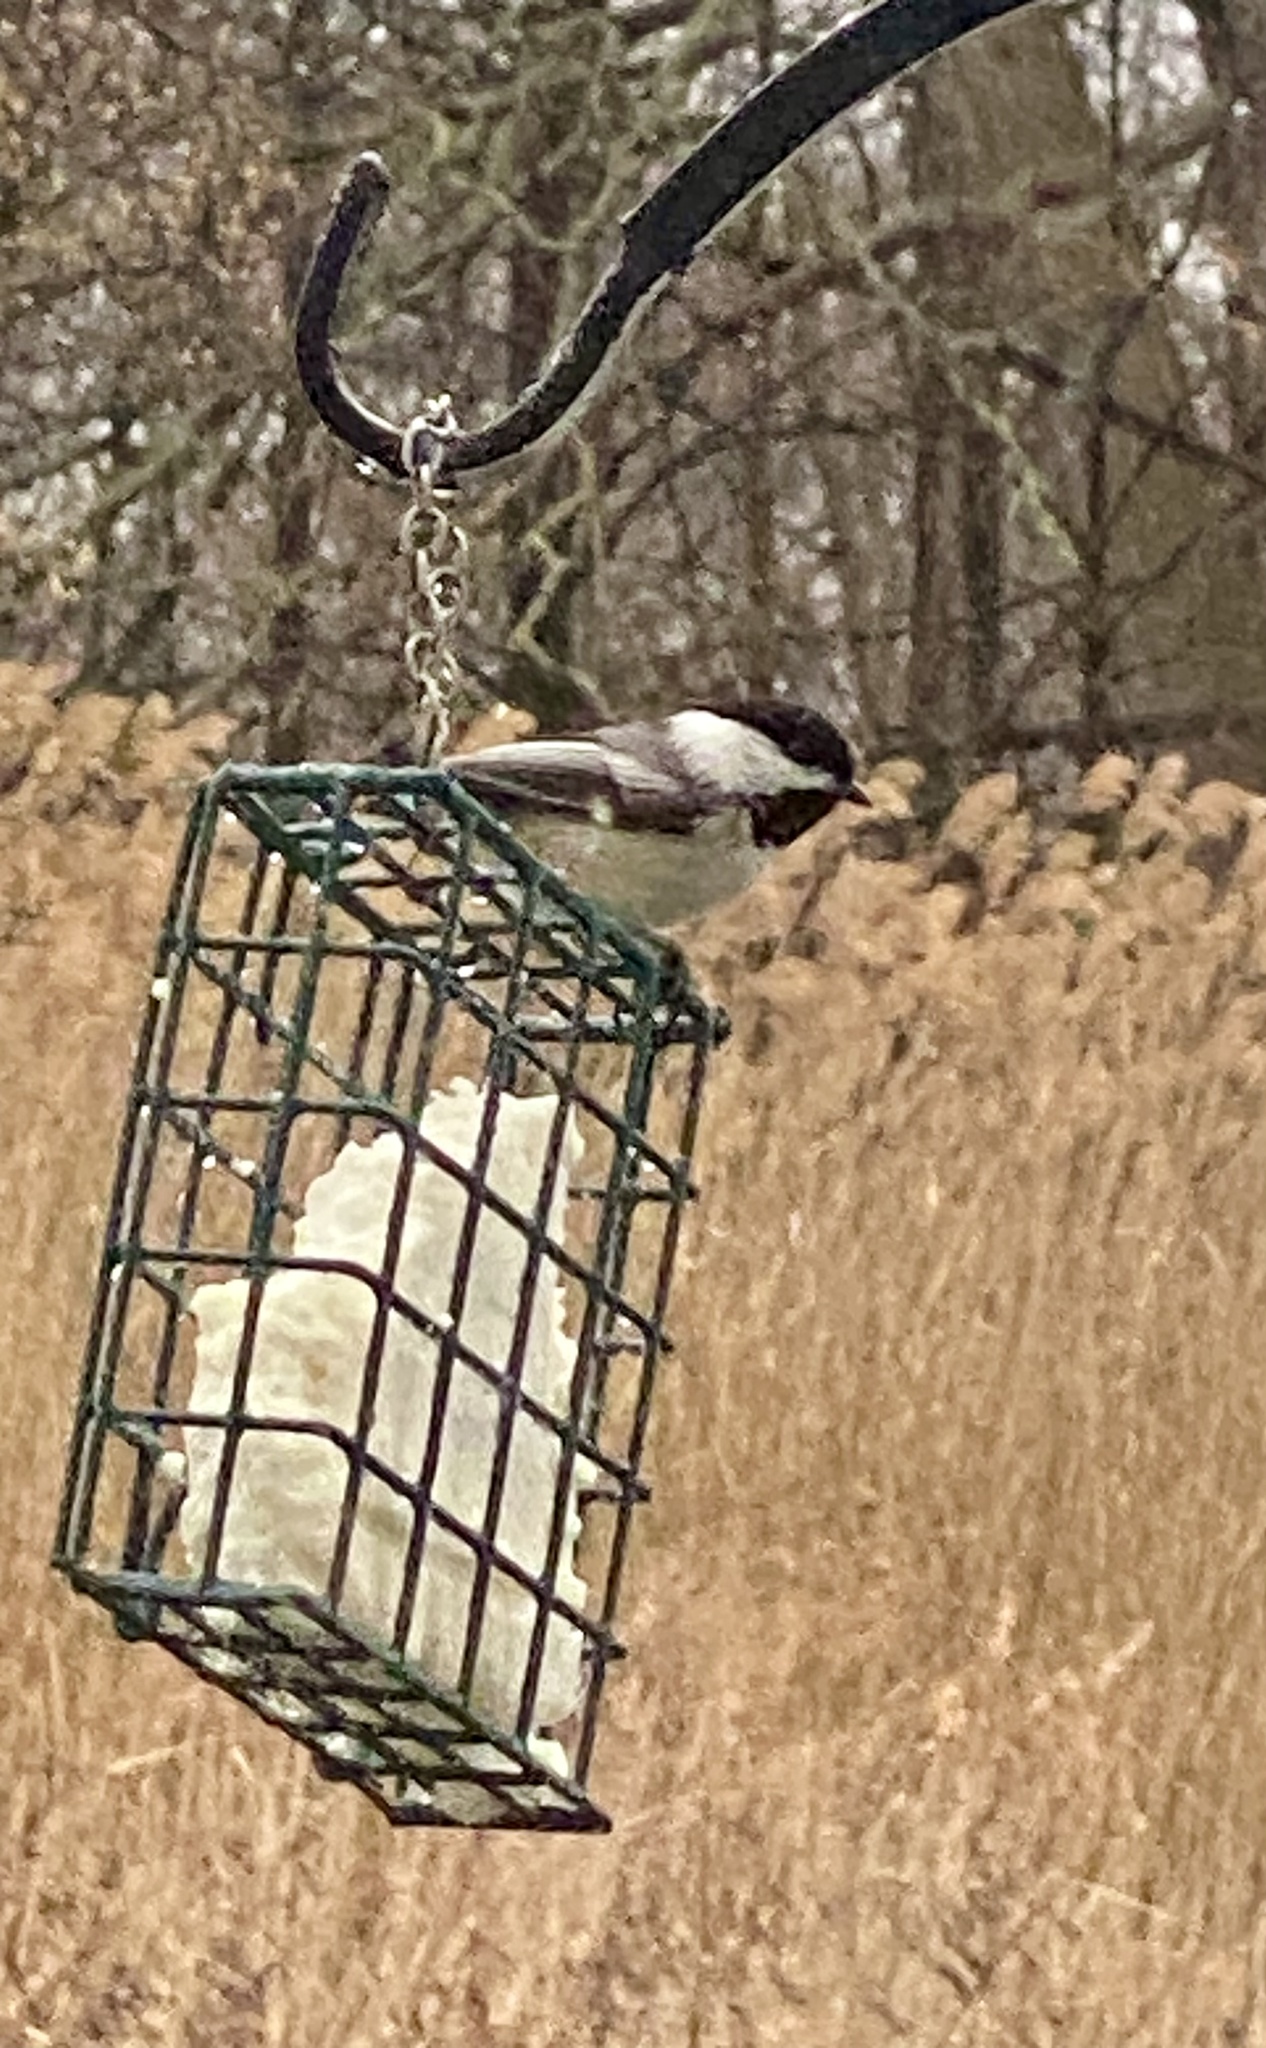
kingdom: Animalia
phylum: Chordata
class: Aves
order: Passeriformes
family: Paridae
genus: Poecile
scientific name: Poecile atricapillus
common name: Black-capped chickadee
